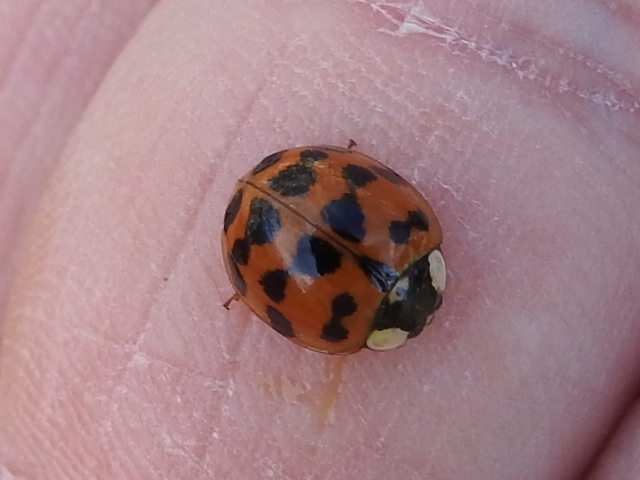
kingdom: Animalia
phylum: Arthropoda
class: Insecta
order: Coleoptera
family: Coccinellidae
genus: Harmonia
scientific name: Harmonia axyridis
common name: Harlequin ladybird
